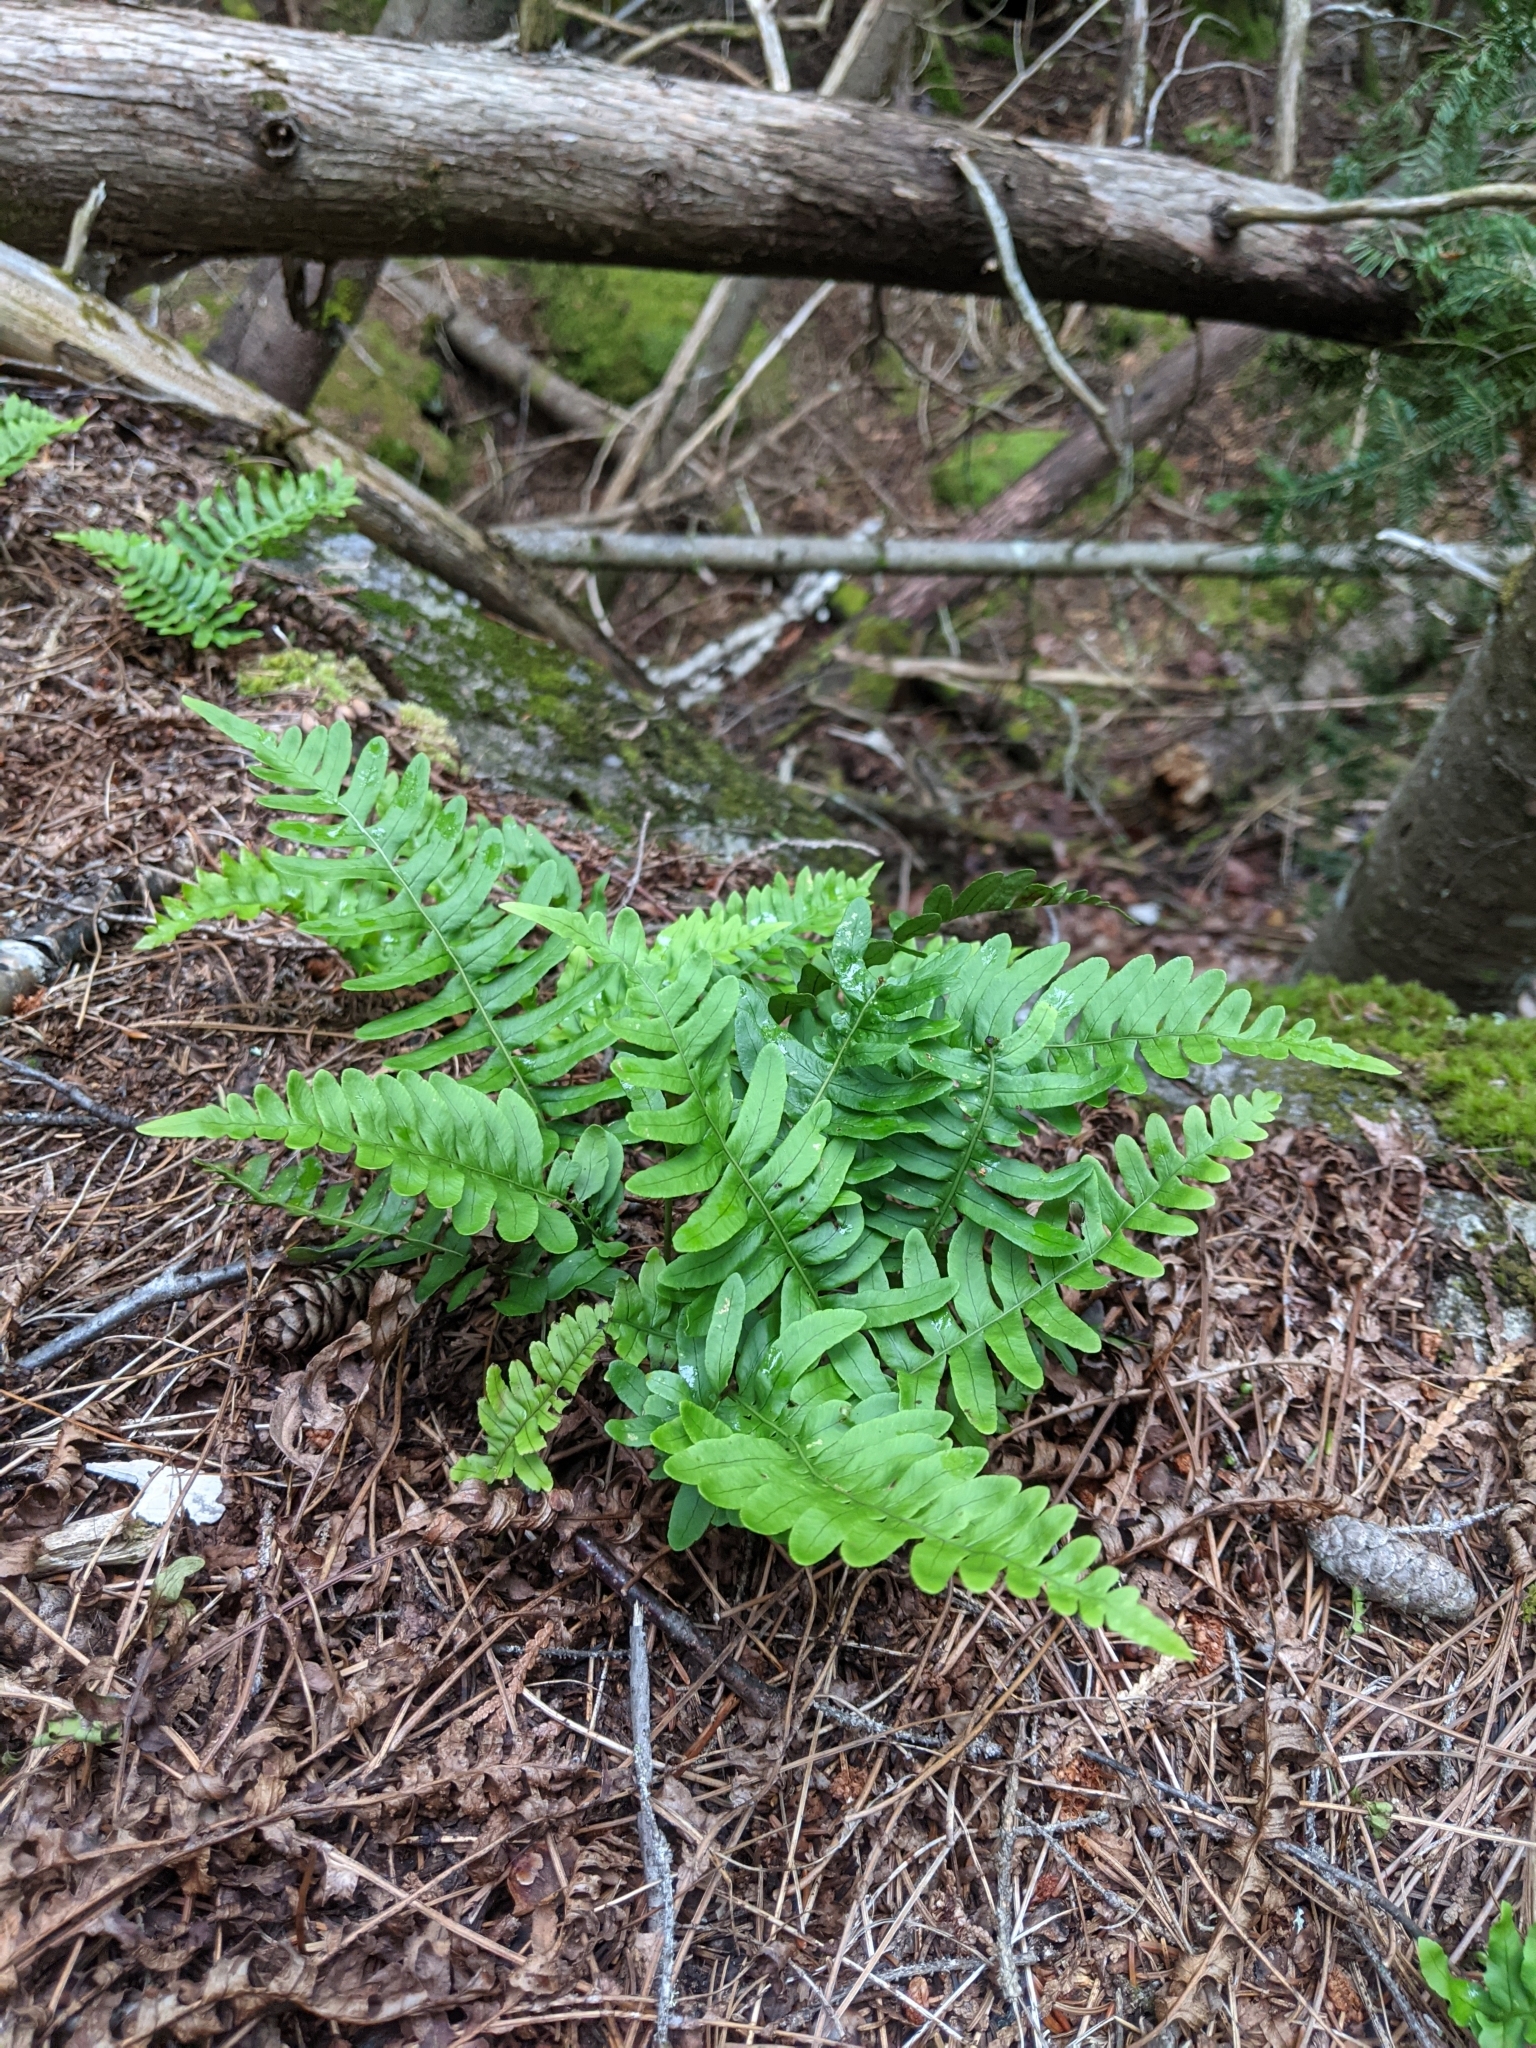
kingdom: Plantae
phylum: Tracheophyta
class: Polypodiopsida
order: Polypodiales
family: Polypodiaceae
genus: Polypodium
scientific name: Polypodium virginianum
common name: American wall fern
